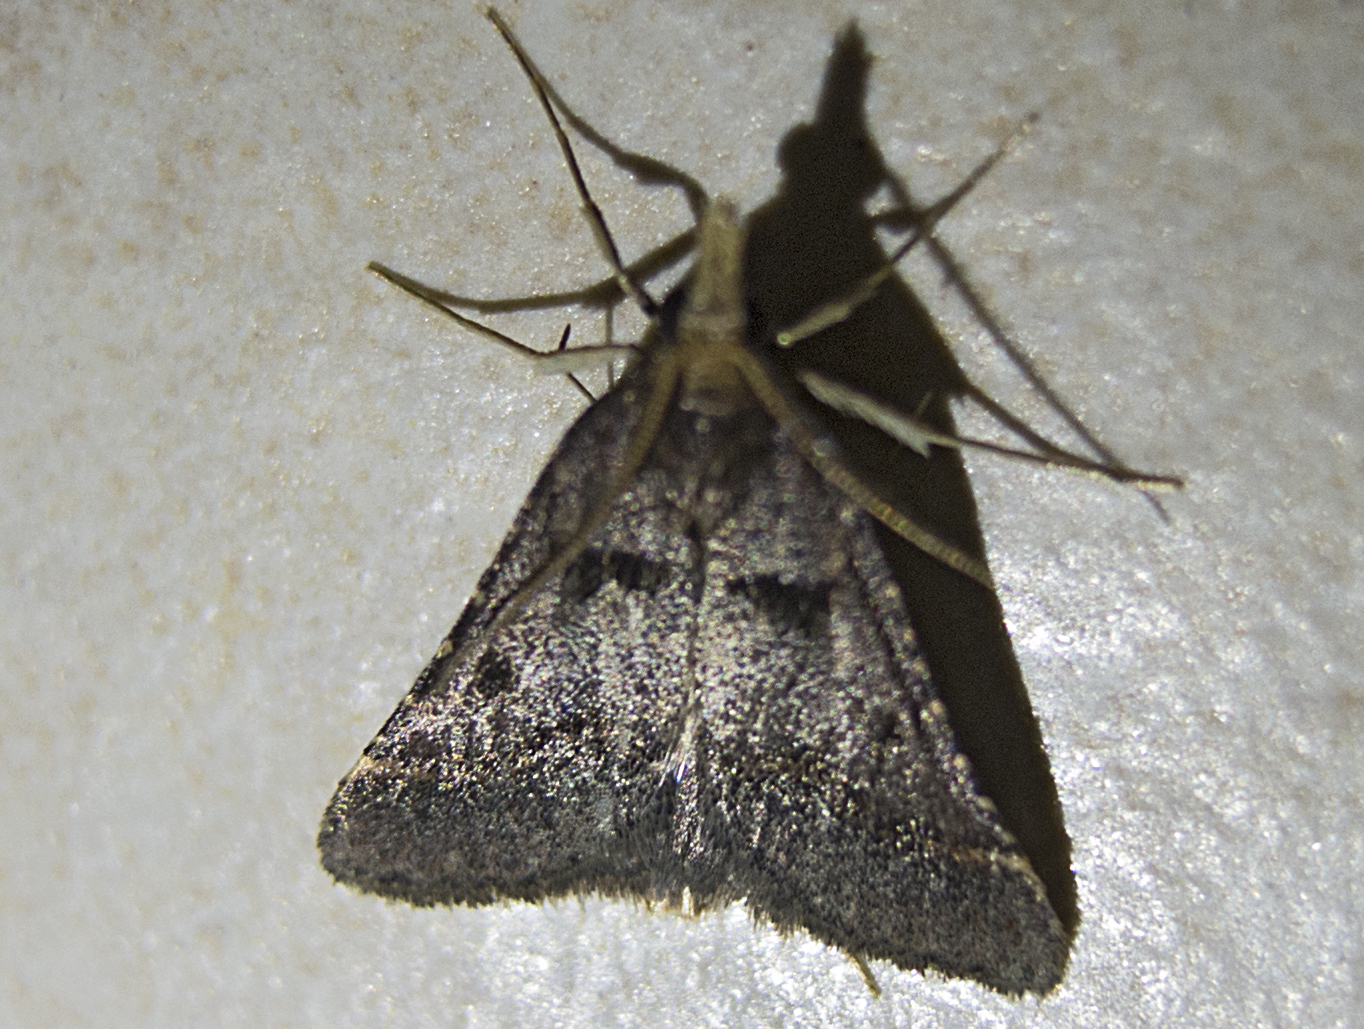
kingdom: Animalia
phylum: Arthropoda
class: Insecta
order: Lepidoptera
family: Pyralidae
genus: Stemmatophora
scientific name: Stemmatophora brunnealis
